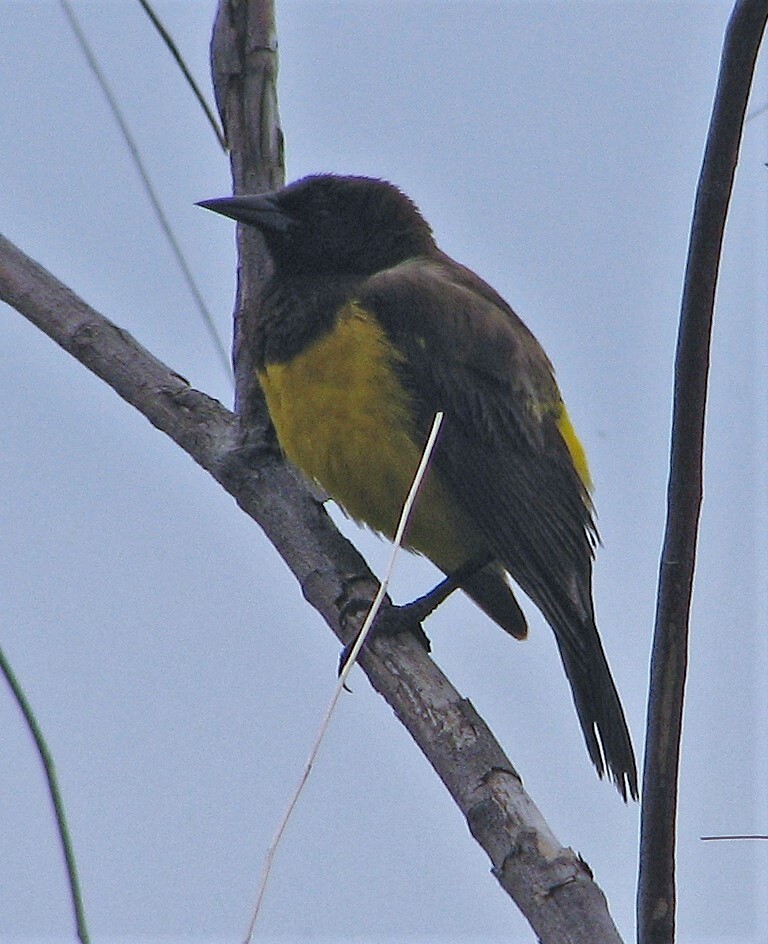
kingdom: Animalia
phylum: Chordata
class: Aves
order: Passeriformes
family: Icteridae
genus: Pseudoleistes
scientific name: Pseudoleistes guirahuro
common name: Yellow-rumped marshbird
